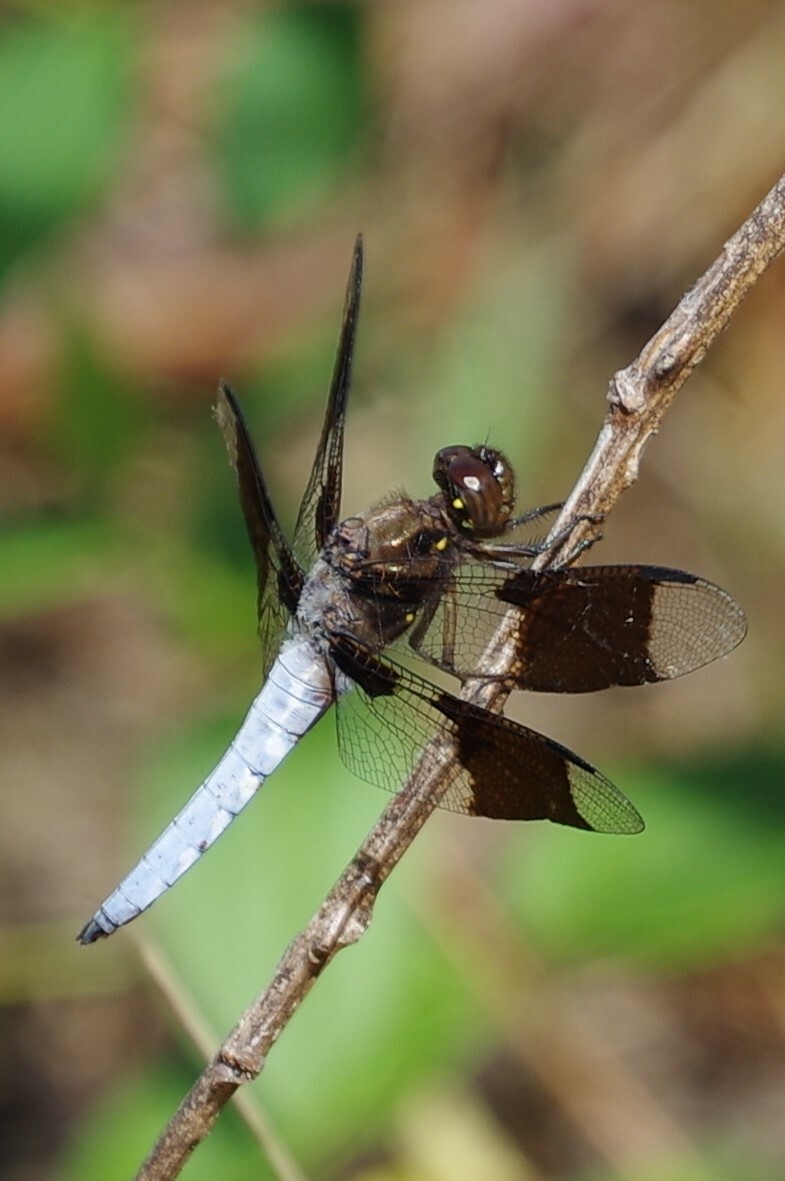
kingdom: Animalia
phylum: Arthropoda
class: Insecta
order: Odonata
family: Libellulidae
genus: Plathemis
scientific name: Plathemis lydia
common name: Common whitetail
